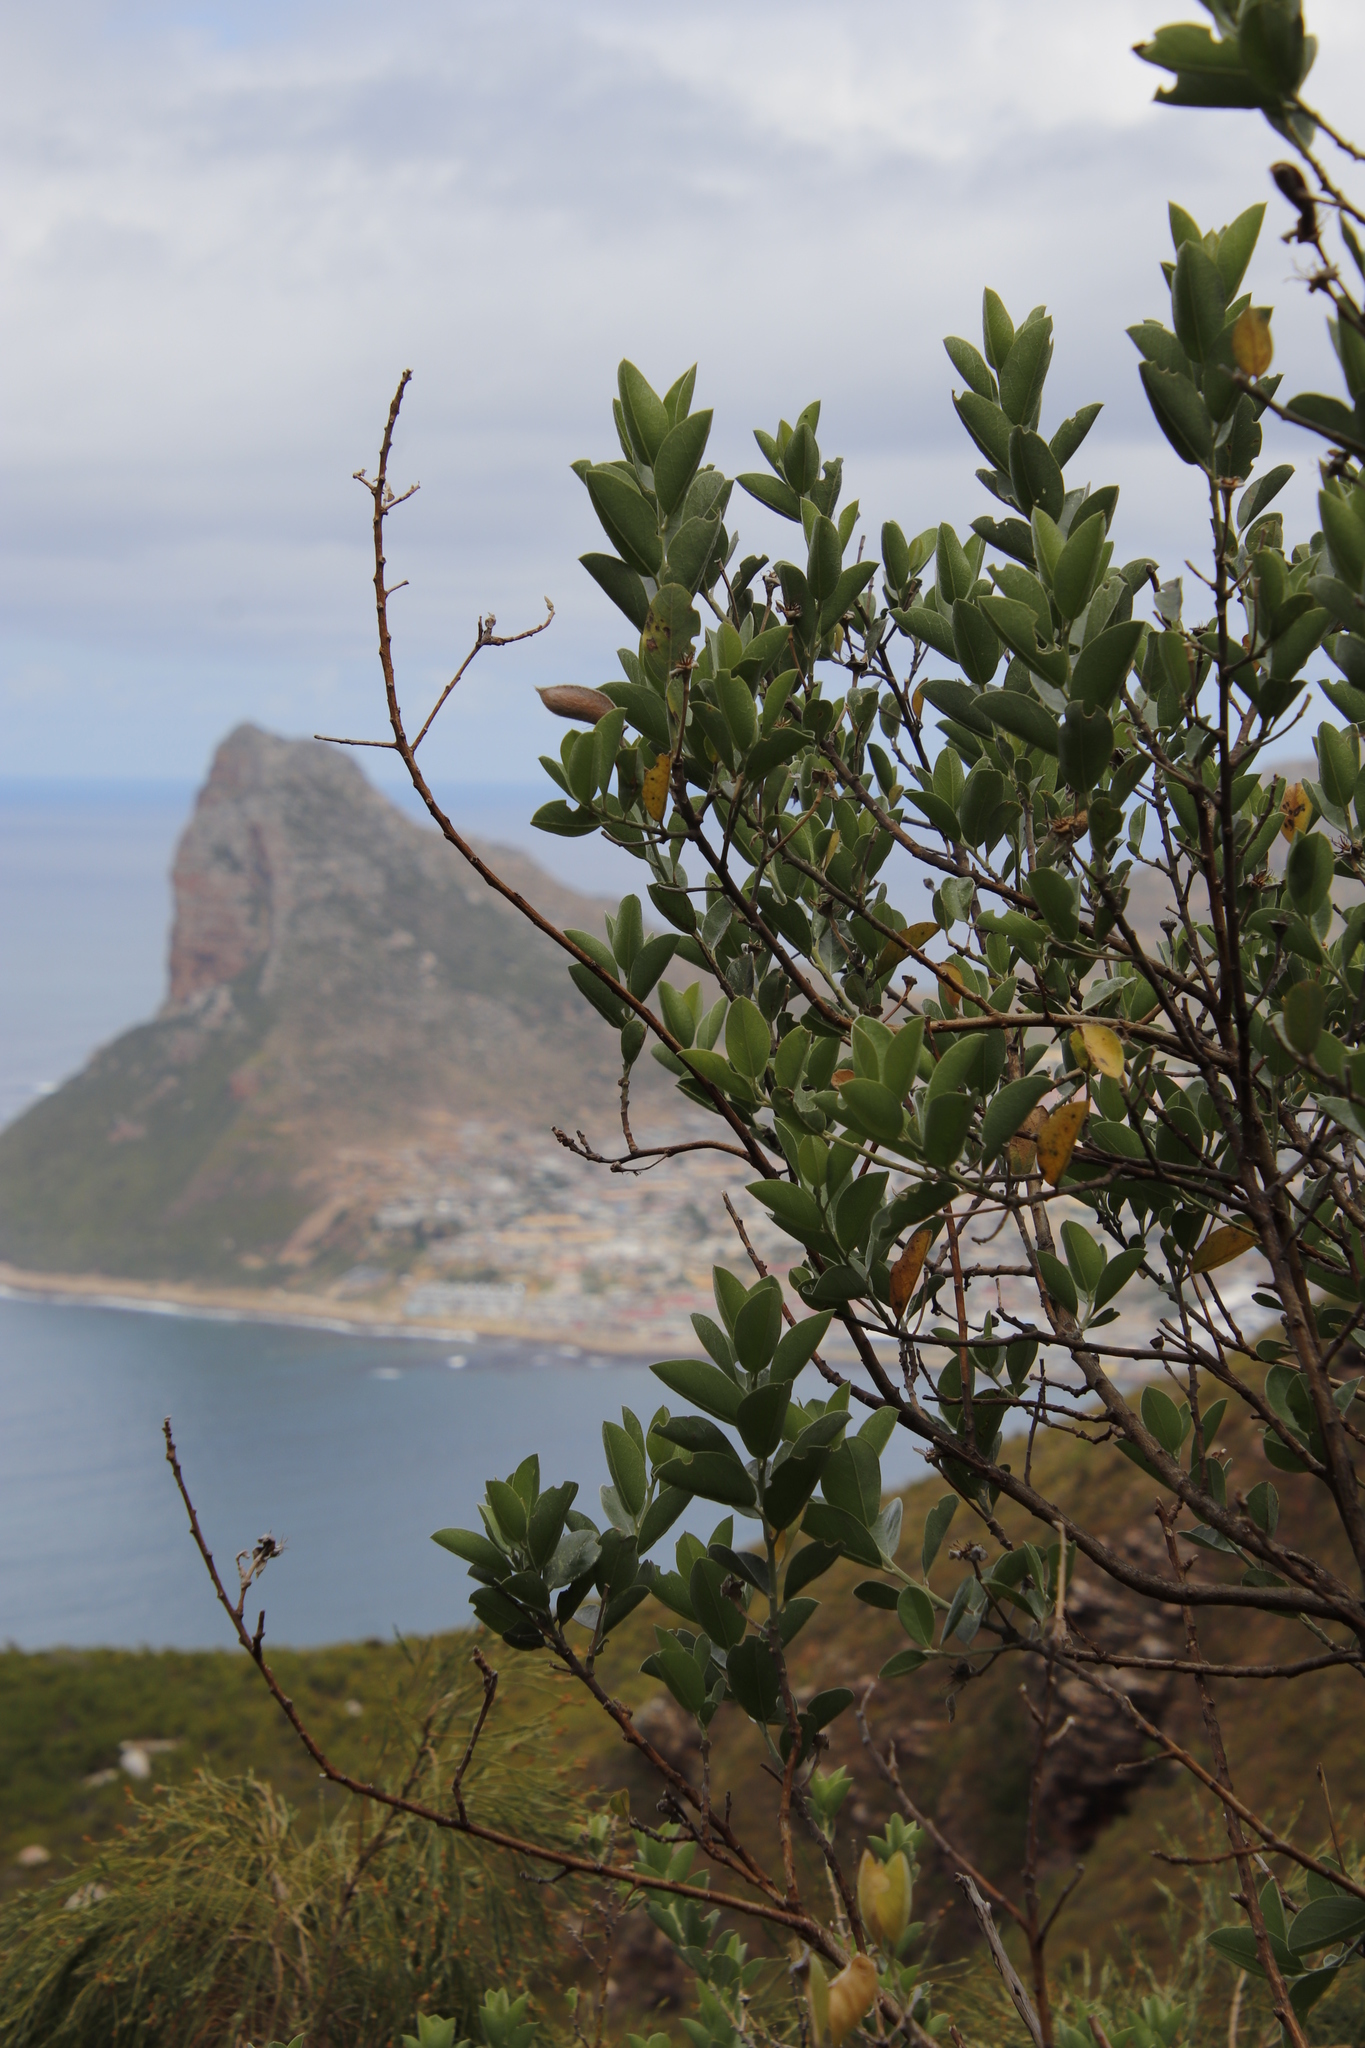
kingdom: Plantae
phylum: Tracheophyta
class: Magnoliopsida
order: Fabales
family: Fabaceae
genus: Podalyria
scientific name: Podalyria calyptrata
